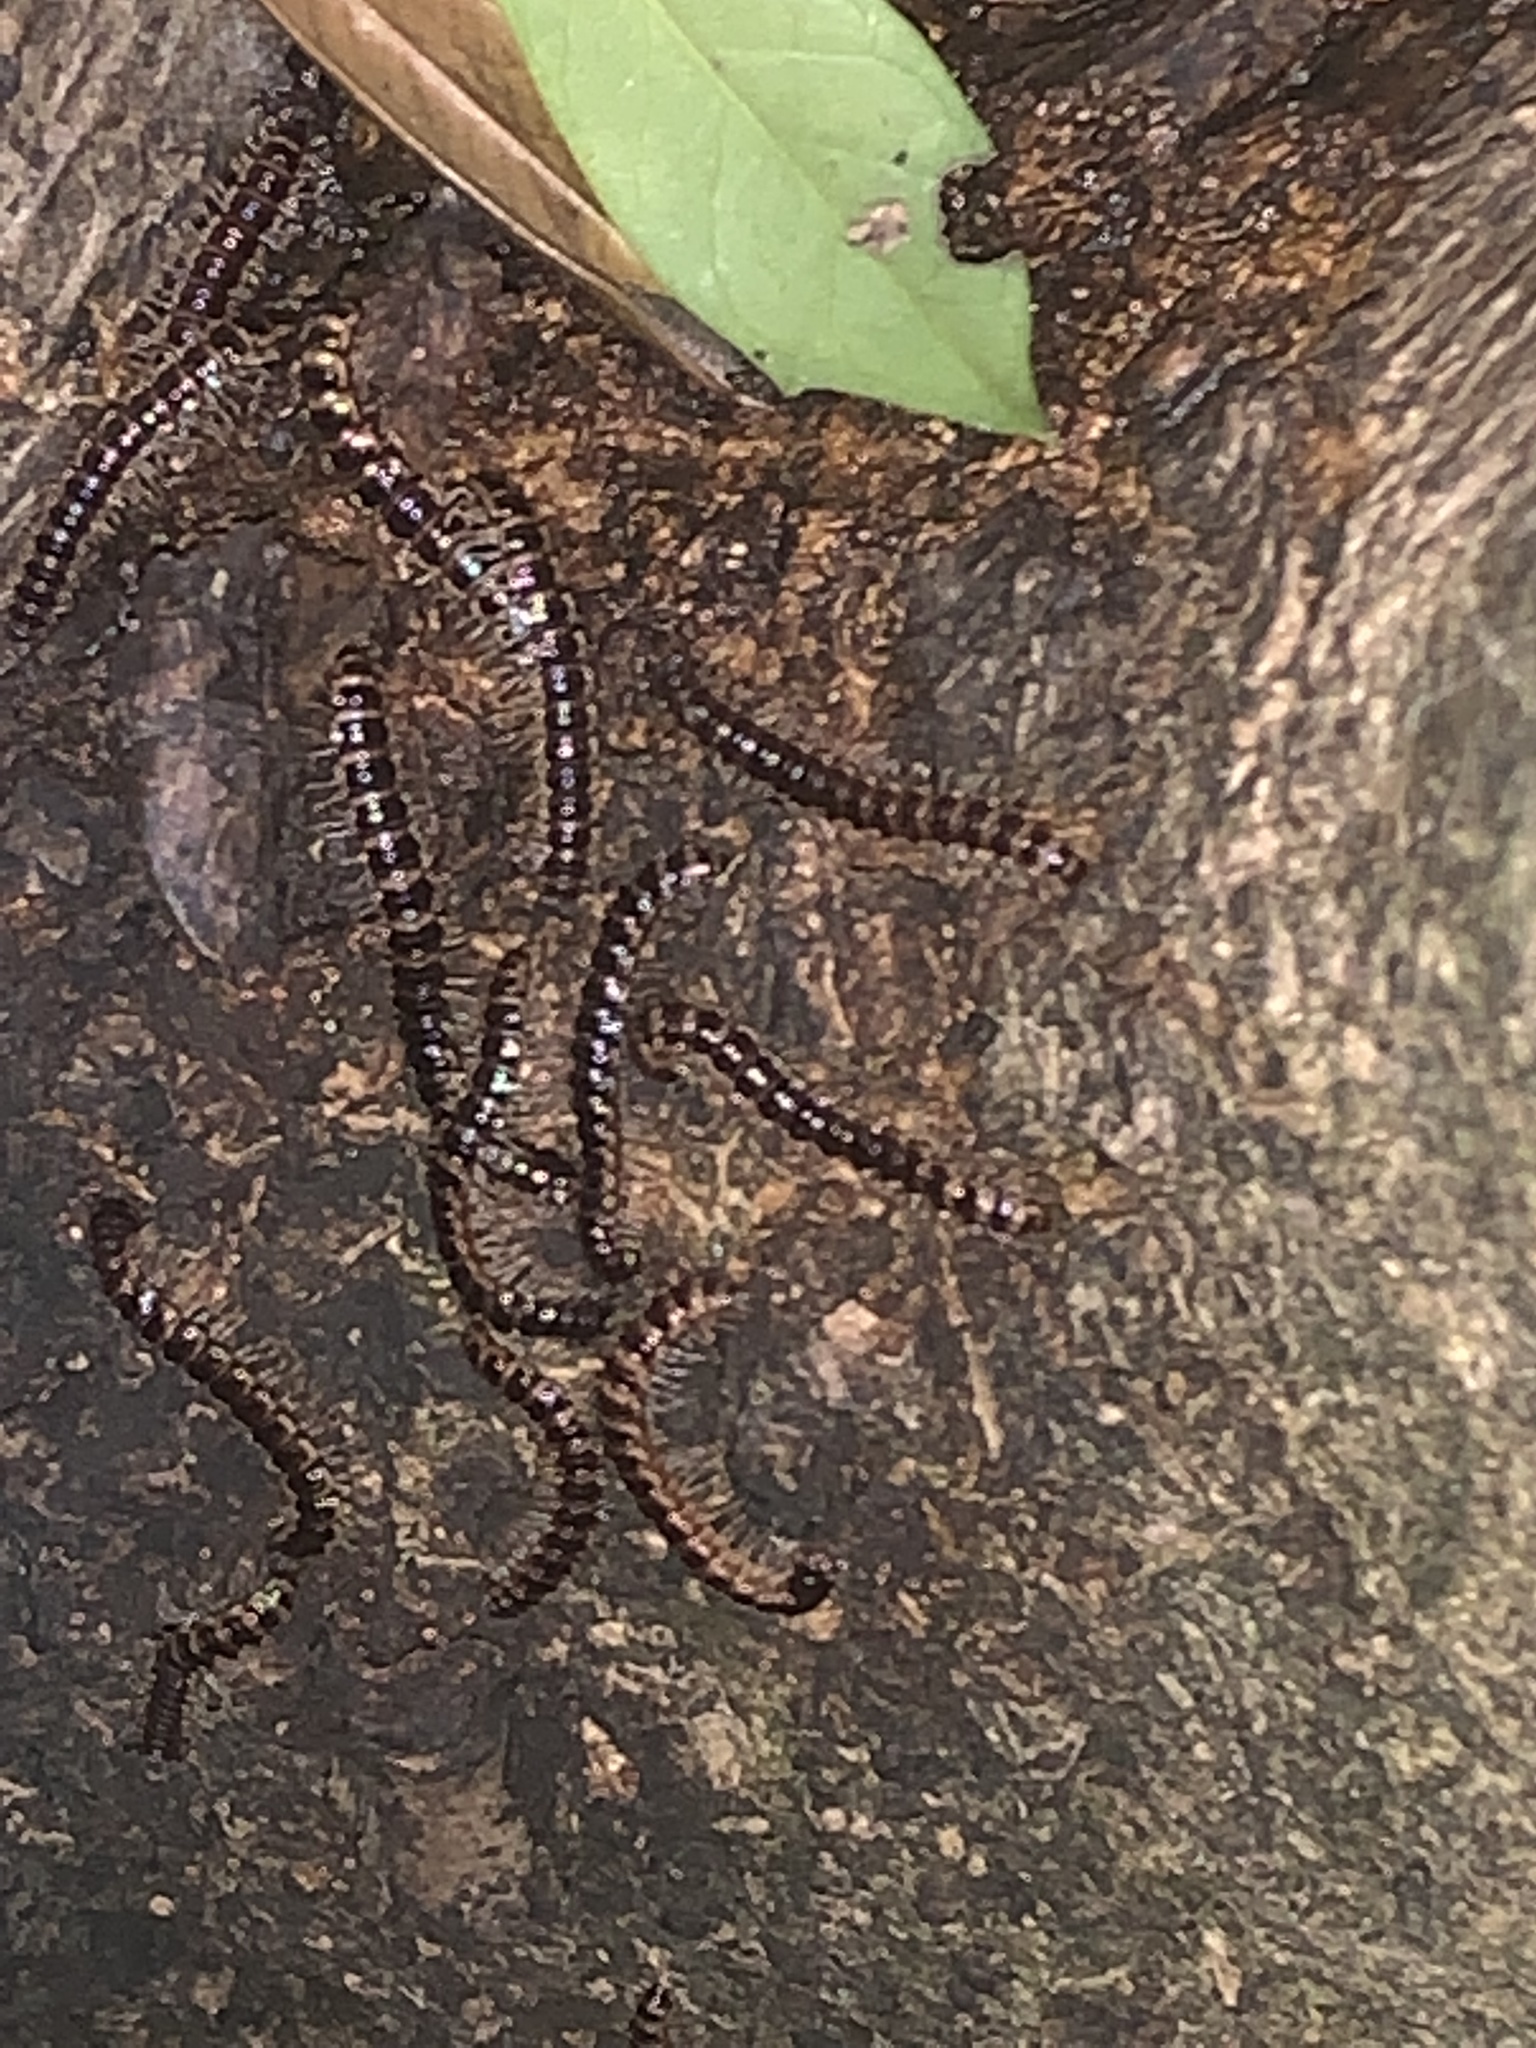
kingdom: Animalia
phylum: Arthropoda
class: Diplopoda
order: Polydesmida
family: Paradoxosomatidae
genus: Oxidus
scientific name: Oxidus gracilis
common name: Greenhouse millipede
